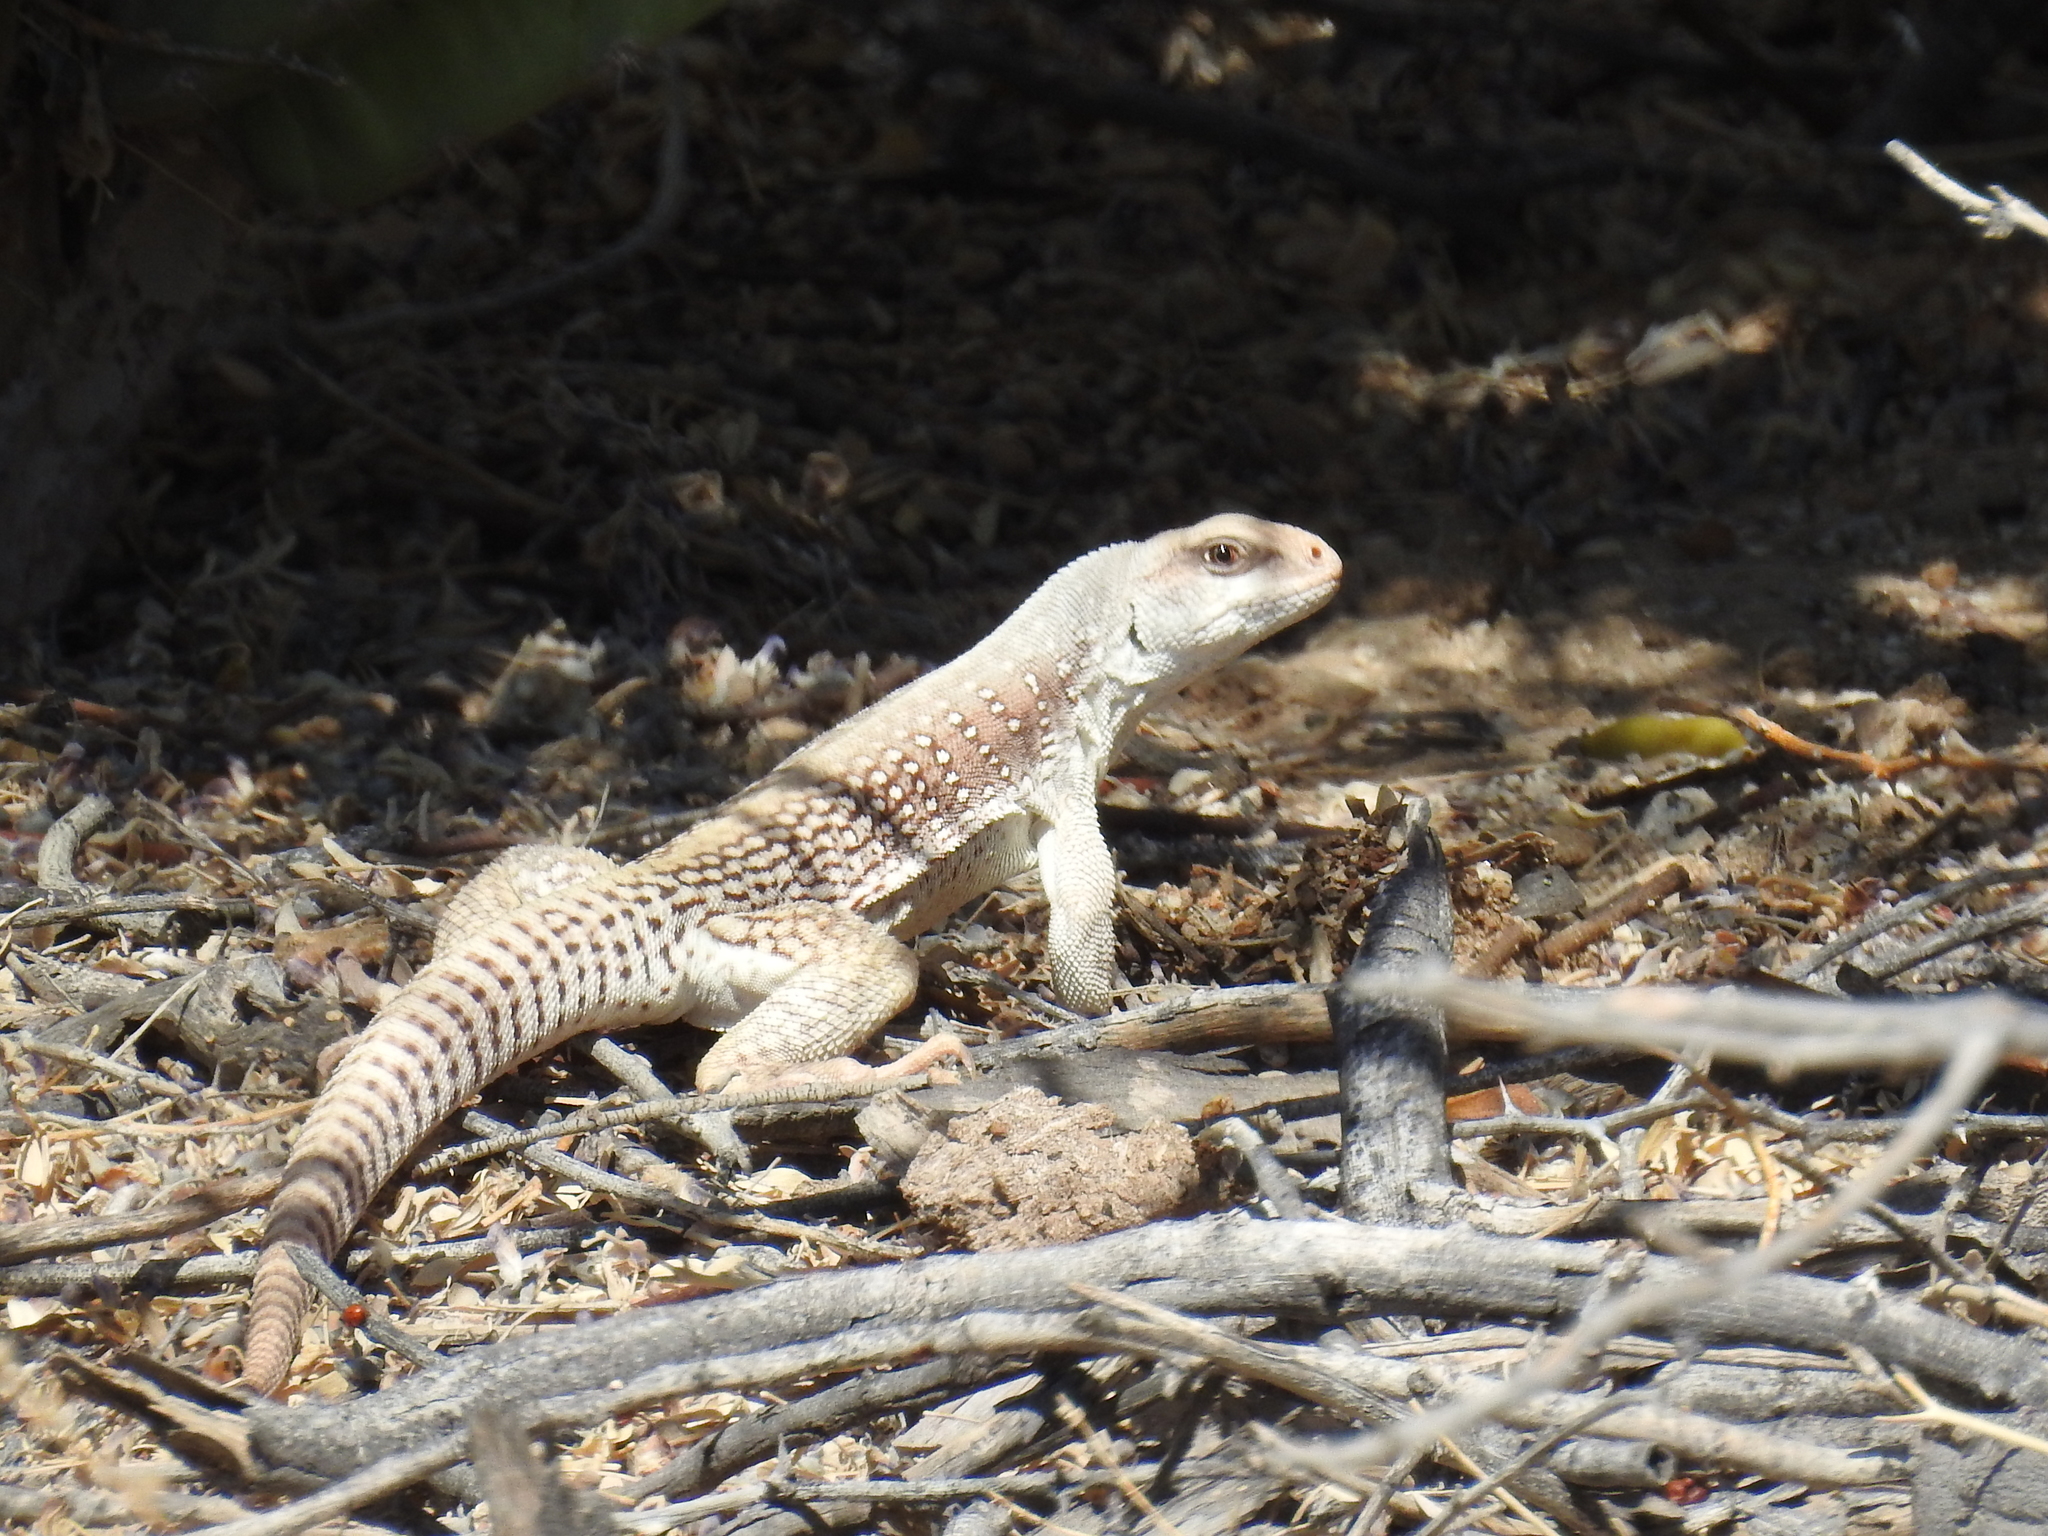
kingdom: Animalia
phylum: Chordata
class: Squamata
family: Iguanidae
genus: Dipsosaurus
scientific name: Dipsosaurus dorsalis
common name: Desert iguana
